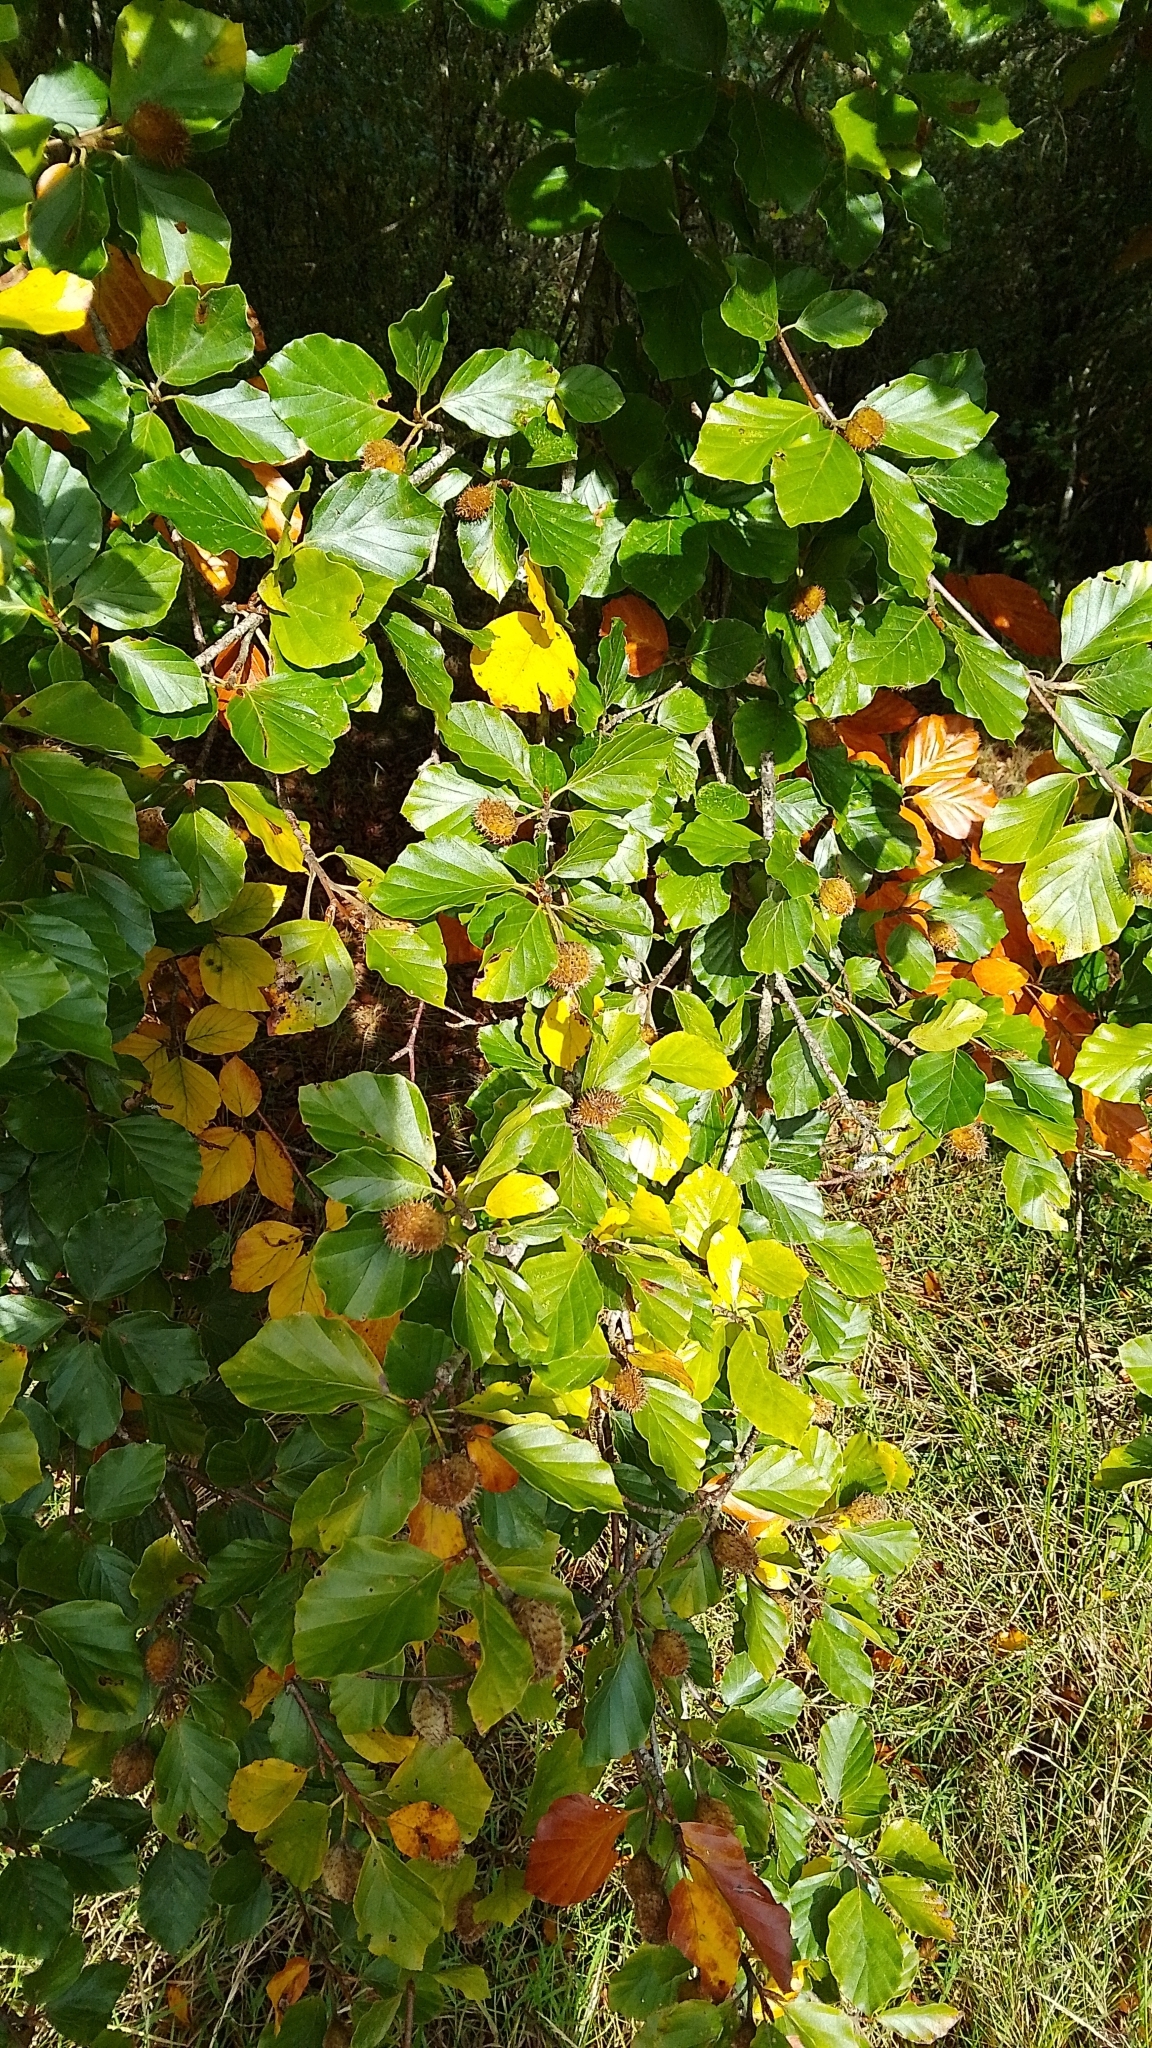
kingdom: Plantae
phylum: Tracheophyta
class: Magnoliopsida
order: Fagales
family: Fagaceae
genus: Fagus
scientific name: Fagus sylvatica
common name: Beech
